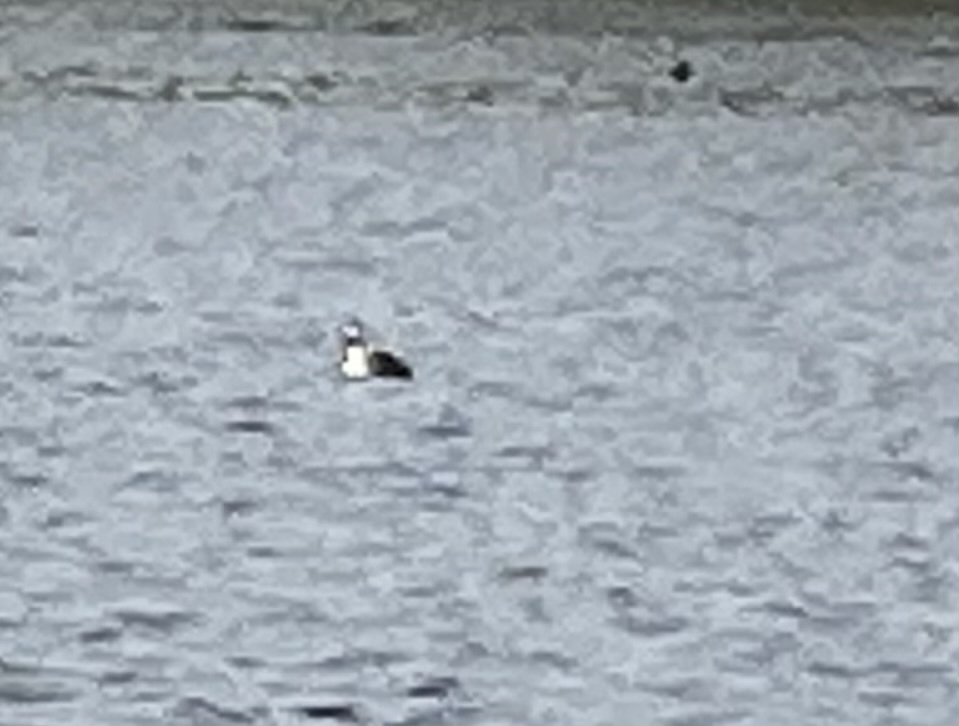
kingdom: Animalia
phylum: Chordata
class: Aves
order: Podicipediformes
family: Podicipedidae
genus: Podiceps
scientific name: Podiceps cristatus
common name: Great crested grebe
